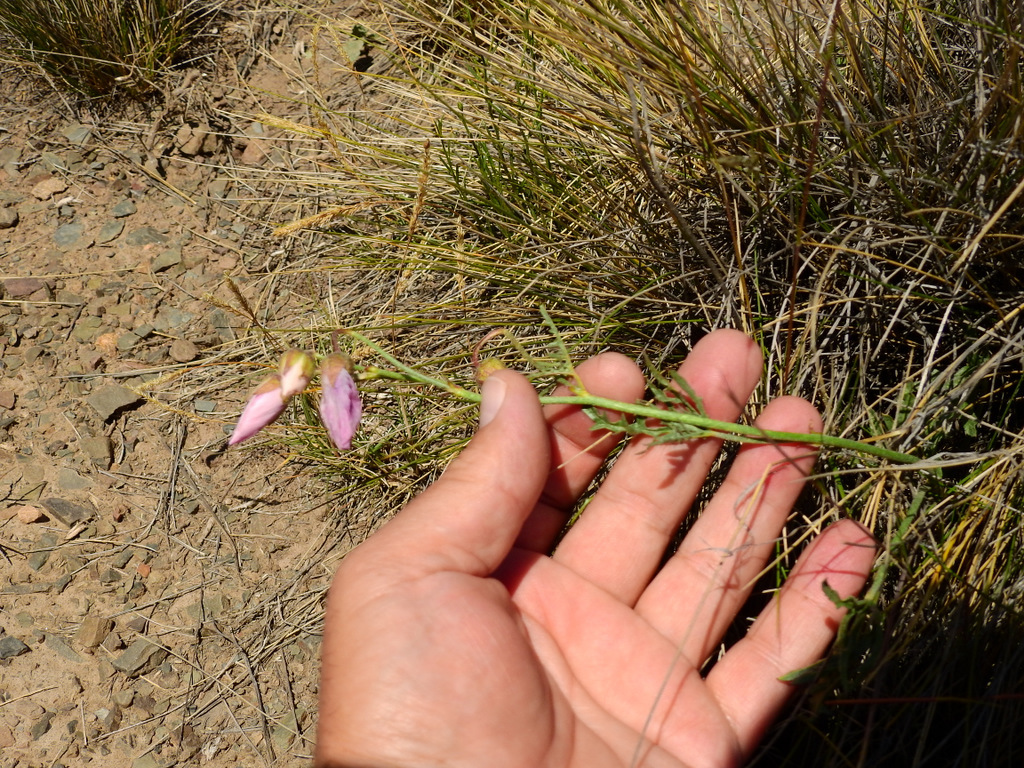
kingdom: Plantae
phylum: Tracheophyta
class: Magnoliopsida
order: Malvales
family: Malvaceae
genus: Lecanophora
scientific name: Lecanophora heterophylla
